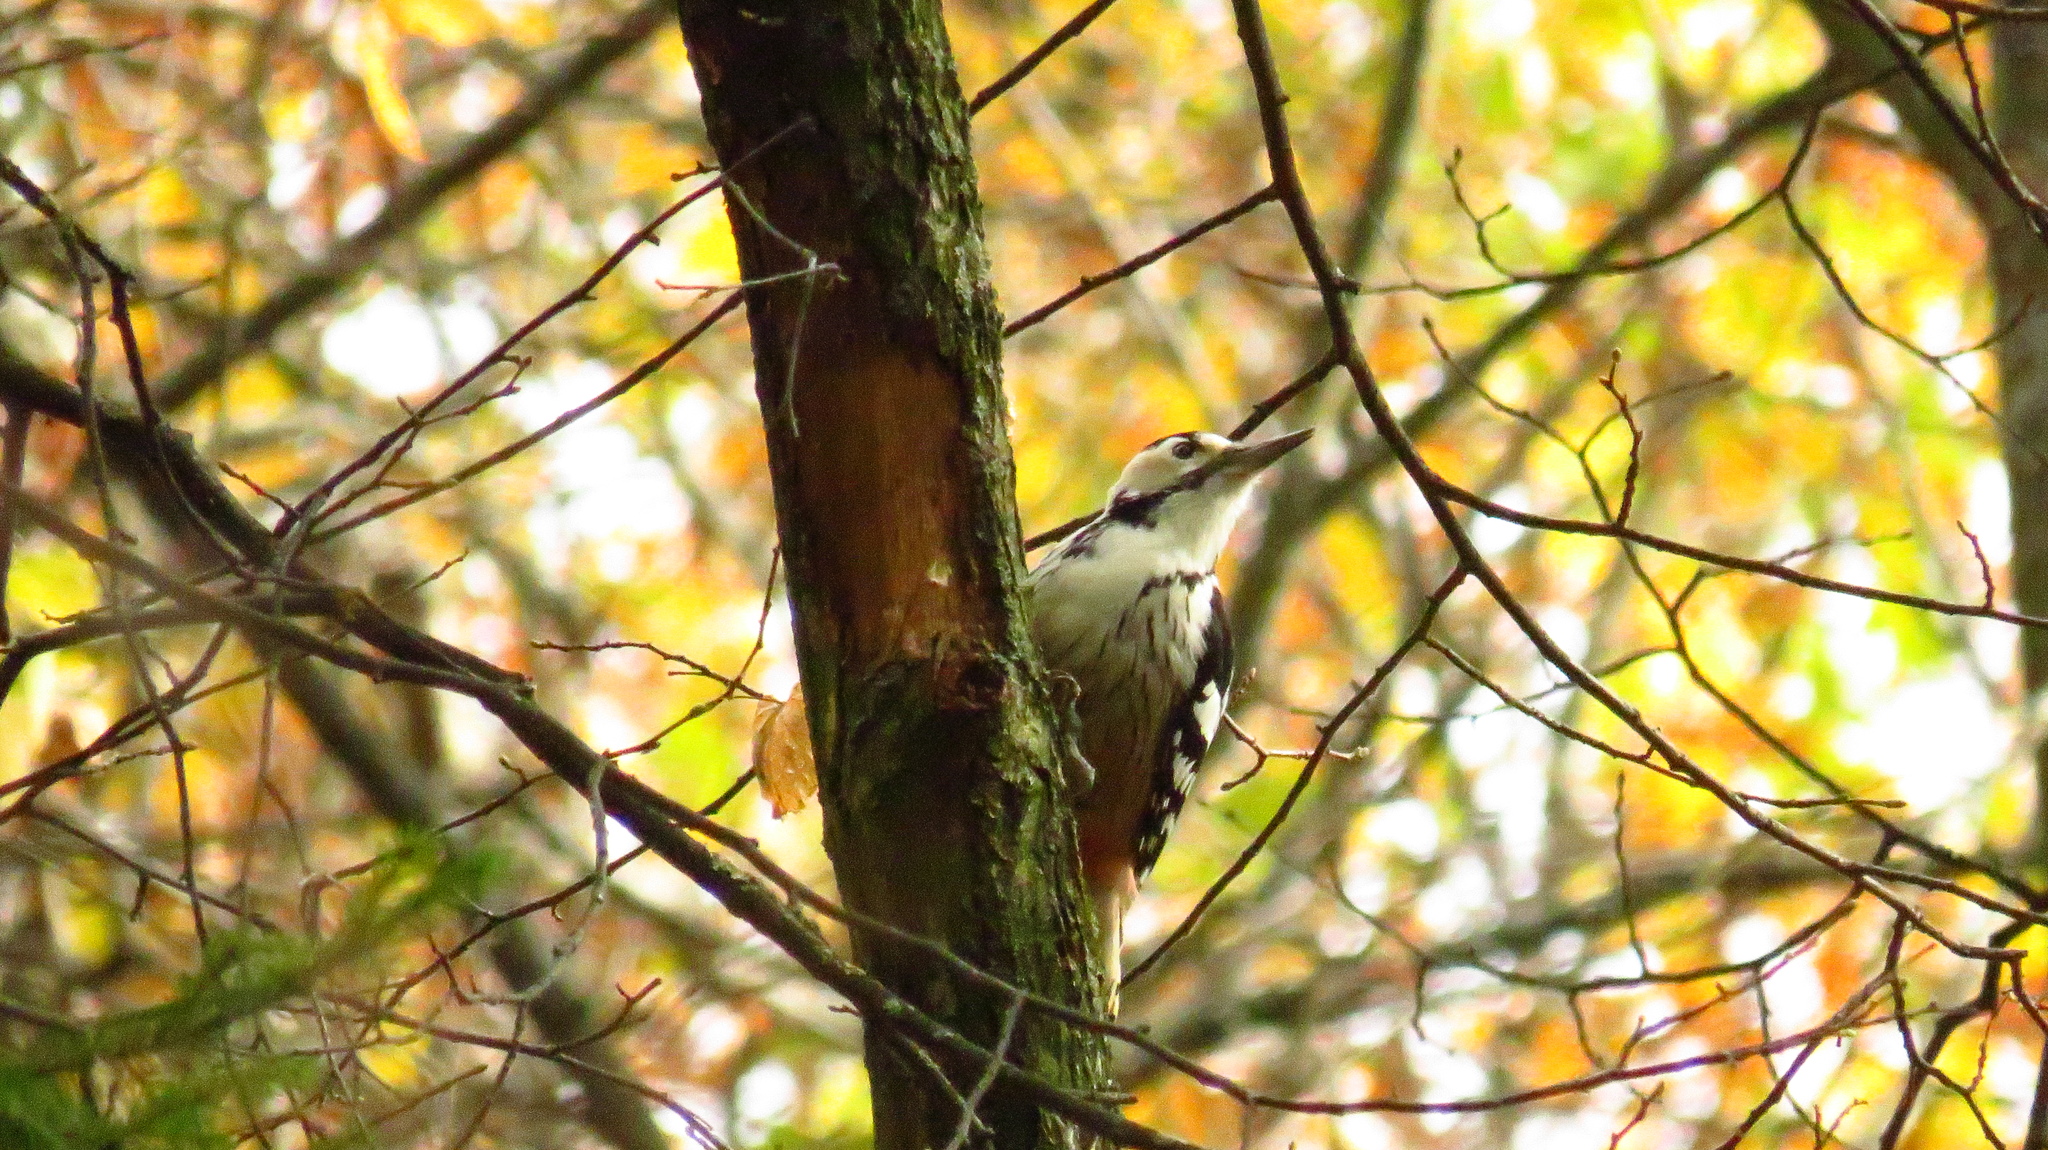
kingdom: Animalia
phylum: Chordata
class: Aves
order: Piciformes
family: Picidae
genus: Dendrocopos
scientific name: Dendrocopos leucotos
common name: White-backed woodpecker
